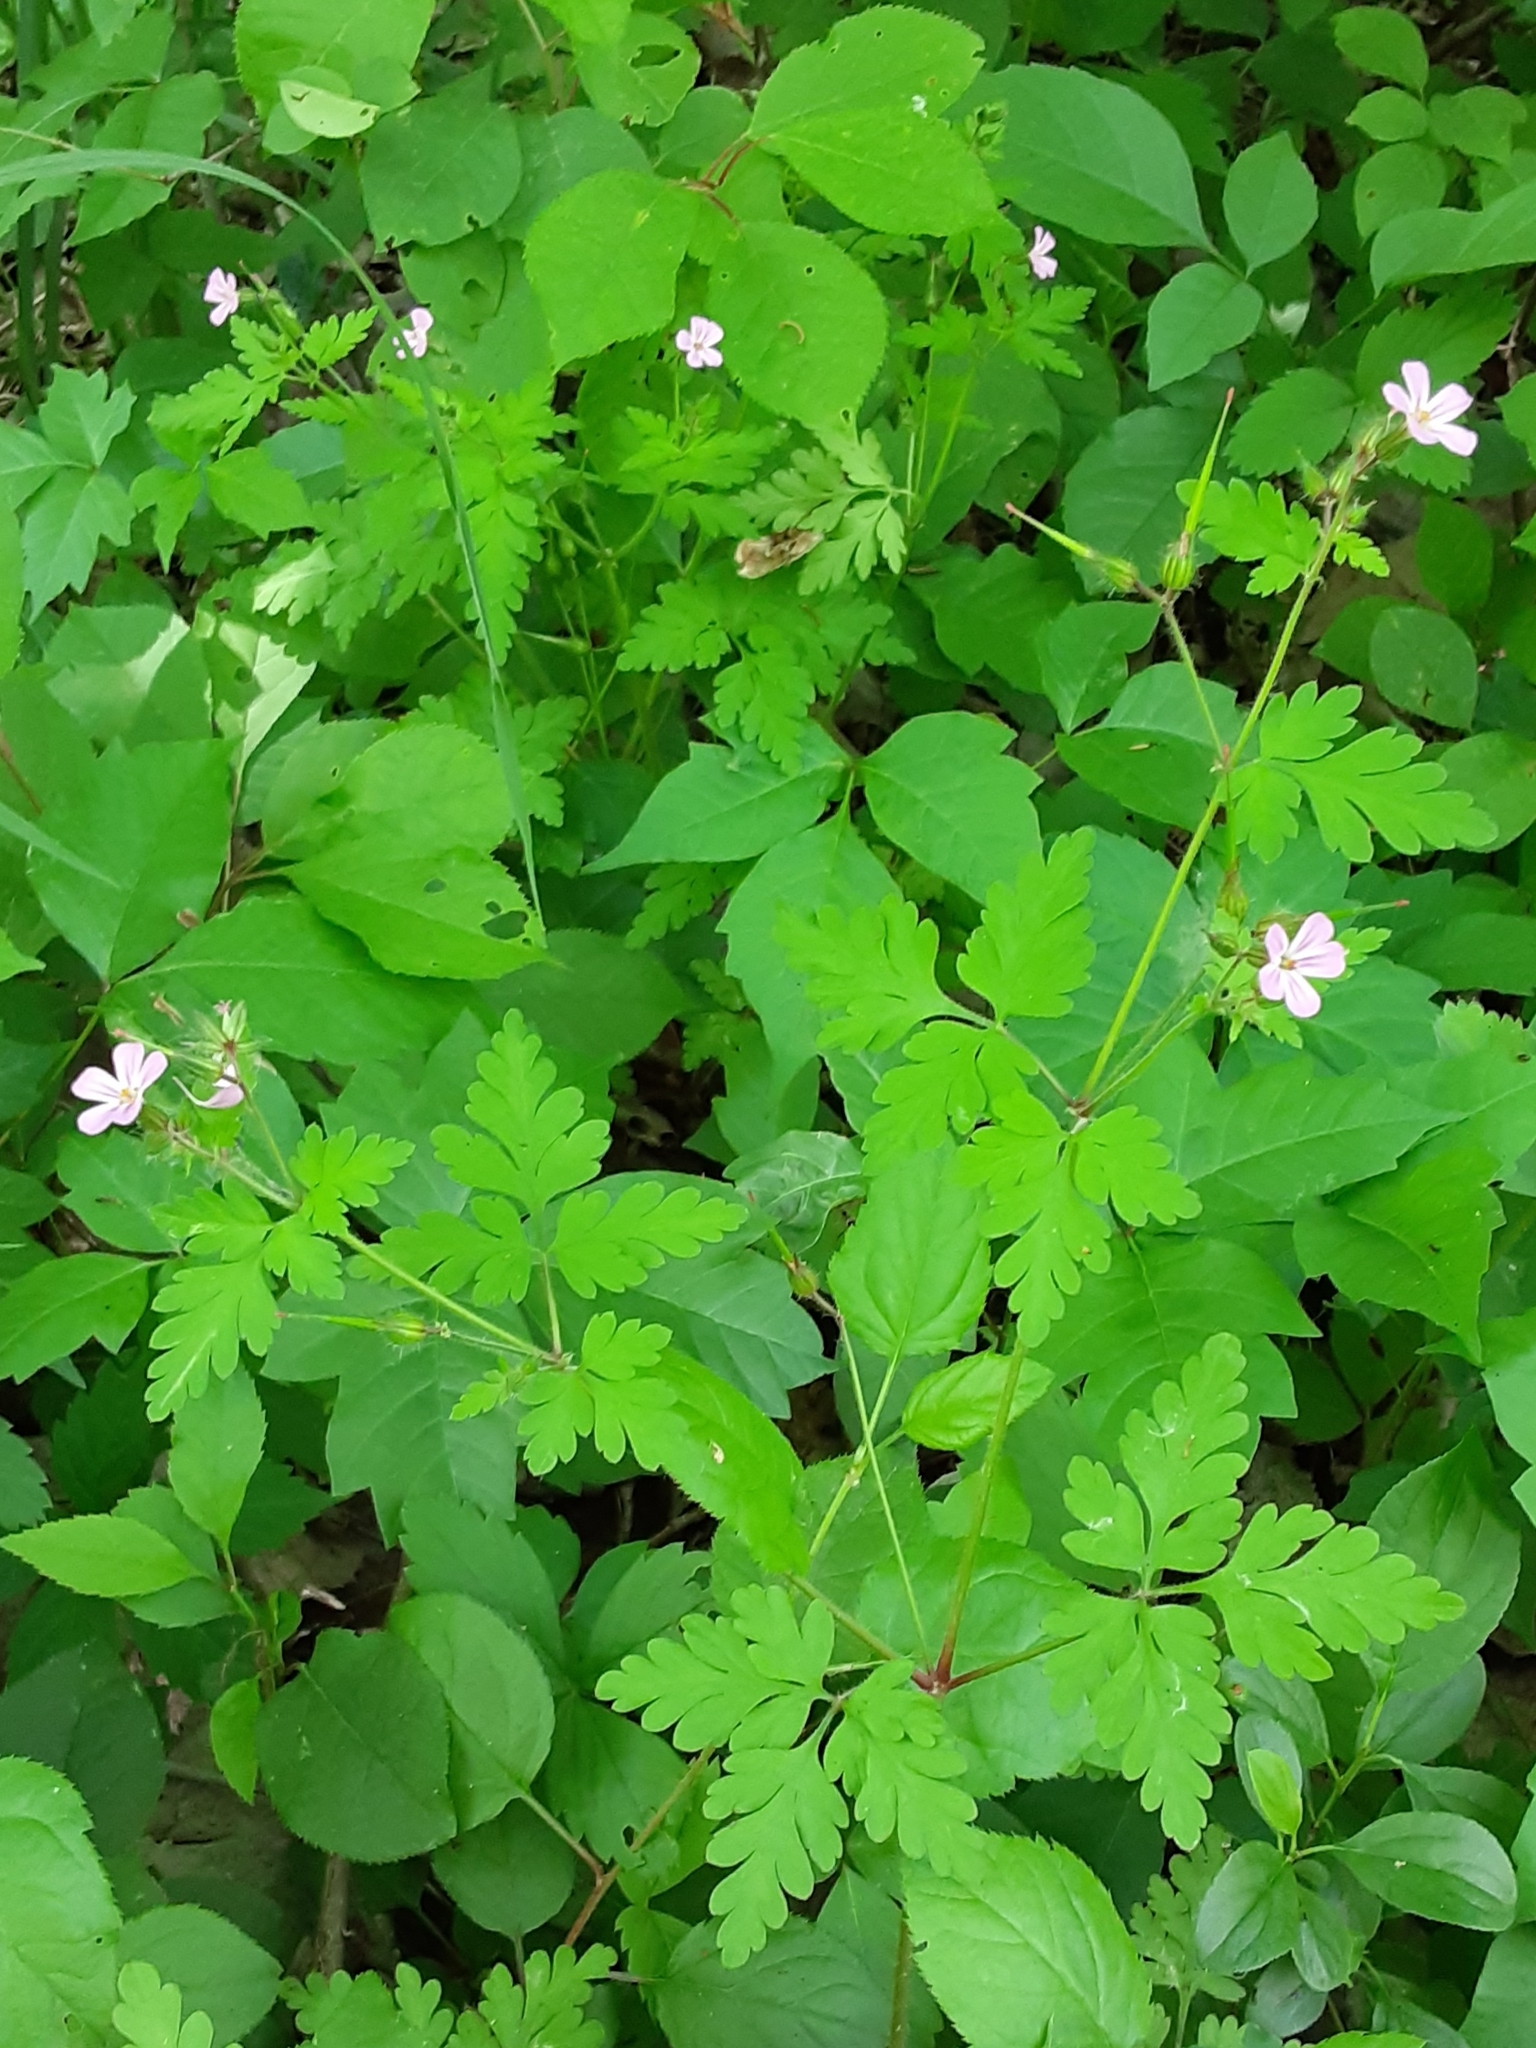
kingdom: Plantae
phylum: Tracheophyta
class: Magnoliopsida
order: Geraniales
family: Geraniaceae
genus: Geranium
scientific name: Geranium robertianum
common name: Herb-robert
